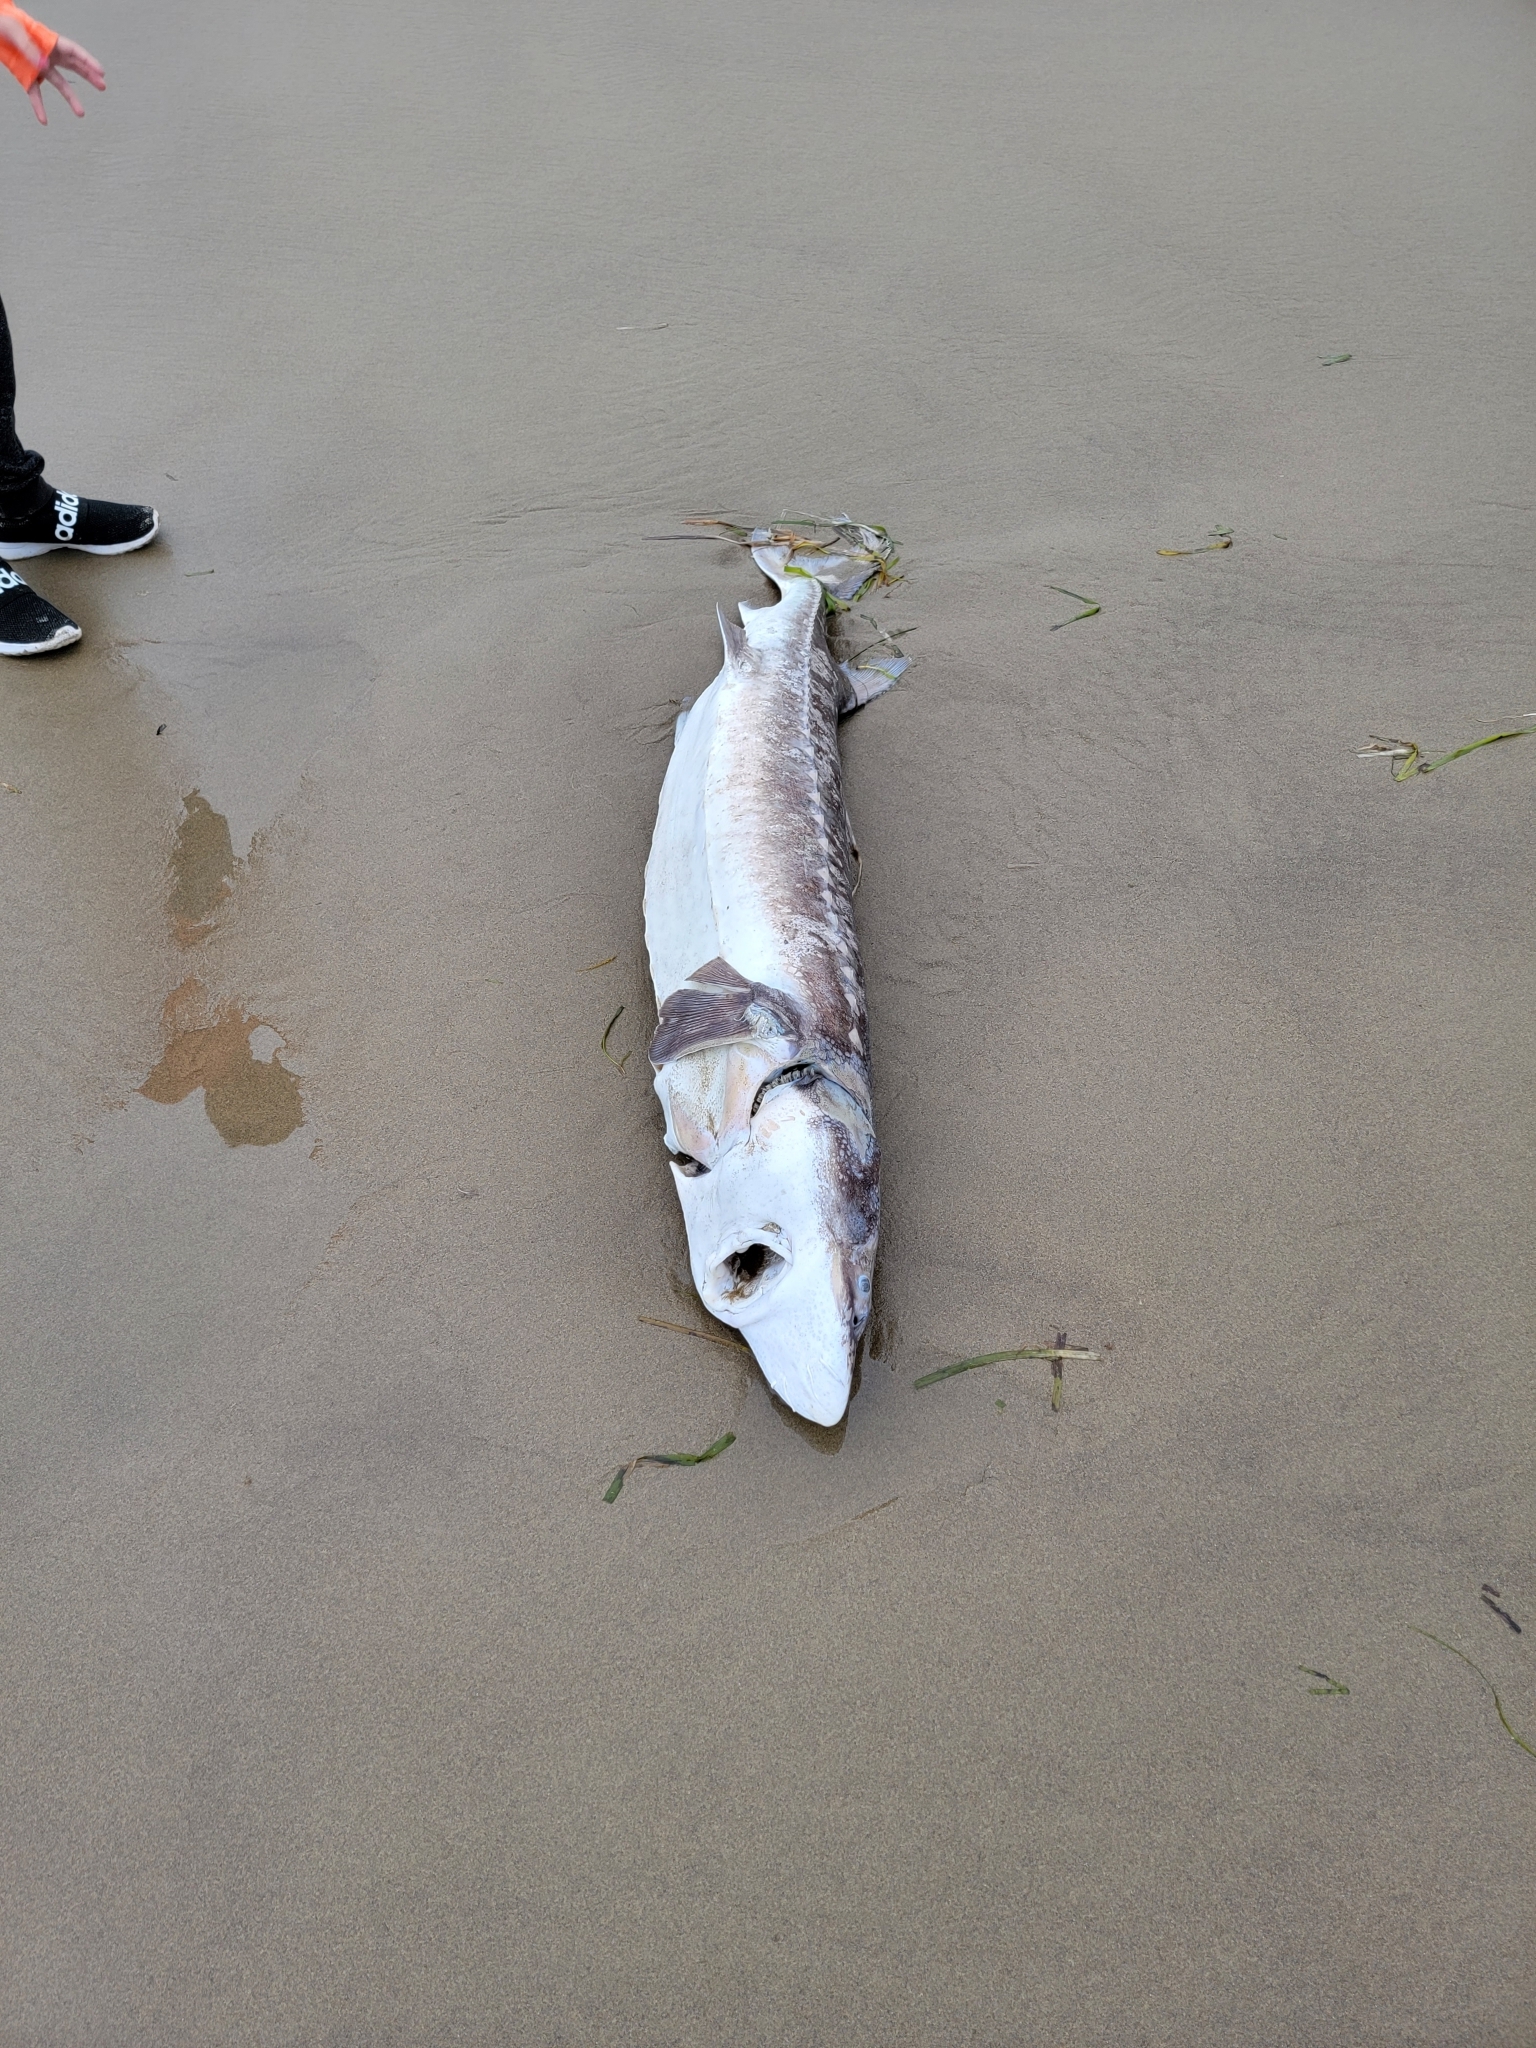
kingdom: Animalia
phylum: Chordata
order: Acipenseriformes
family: Acipenseridae
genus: Acipenser
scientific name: Acipenser transmontanus
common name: White sturgeon
